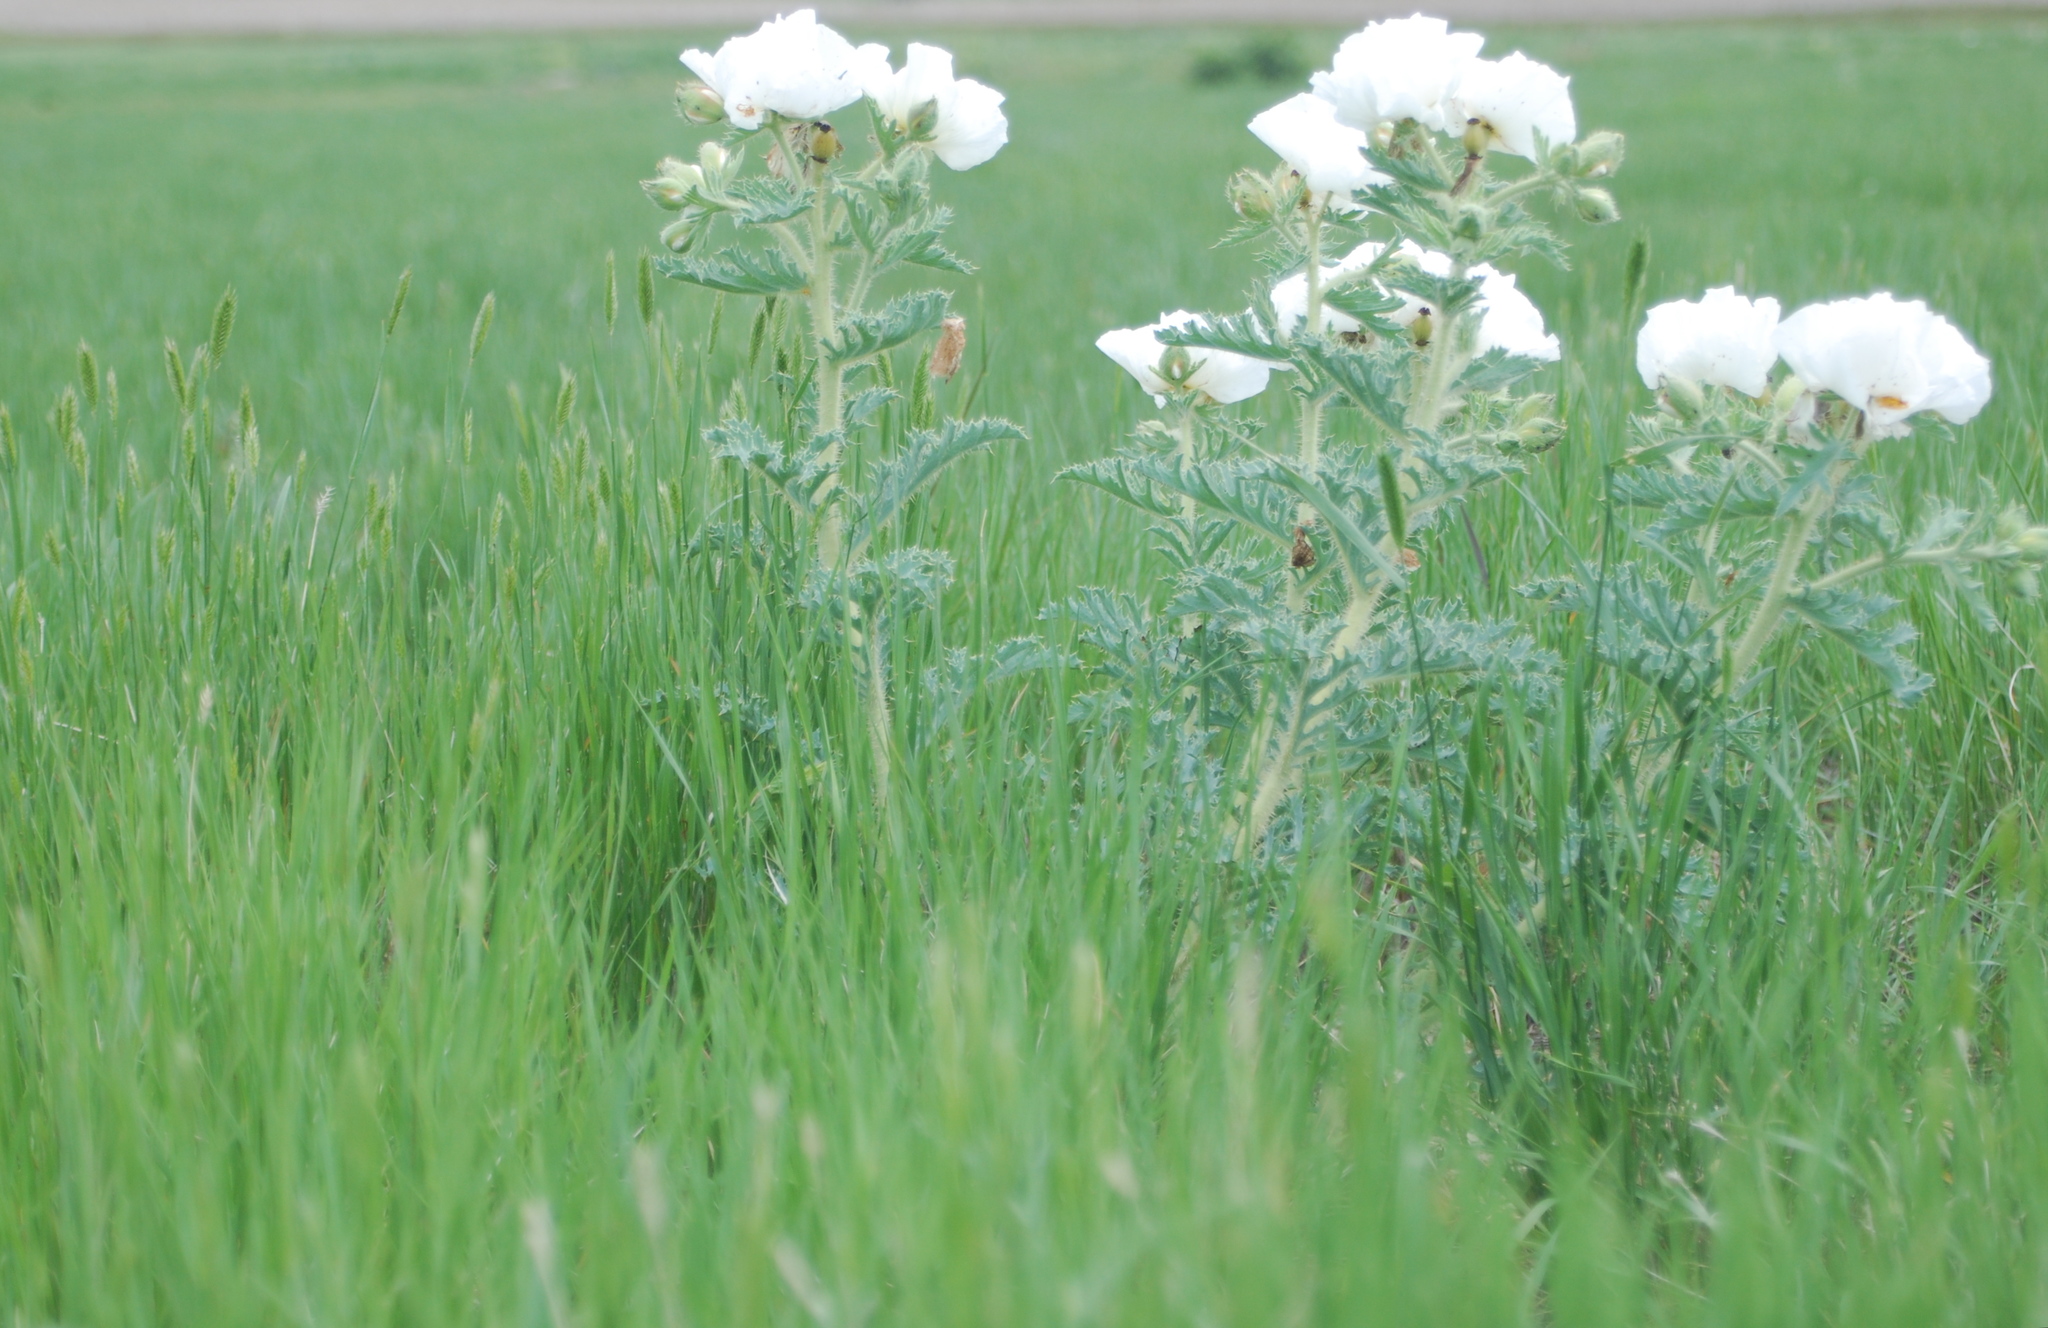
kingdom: Plantae
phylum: Tracheophyta
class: Magnoliopsida
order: Ranunculales
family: Papaveraceae
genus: Argemone
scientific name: Argemone hispida
